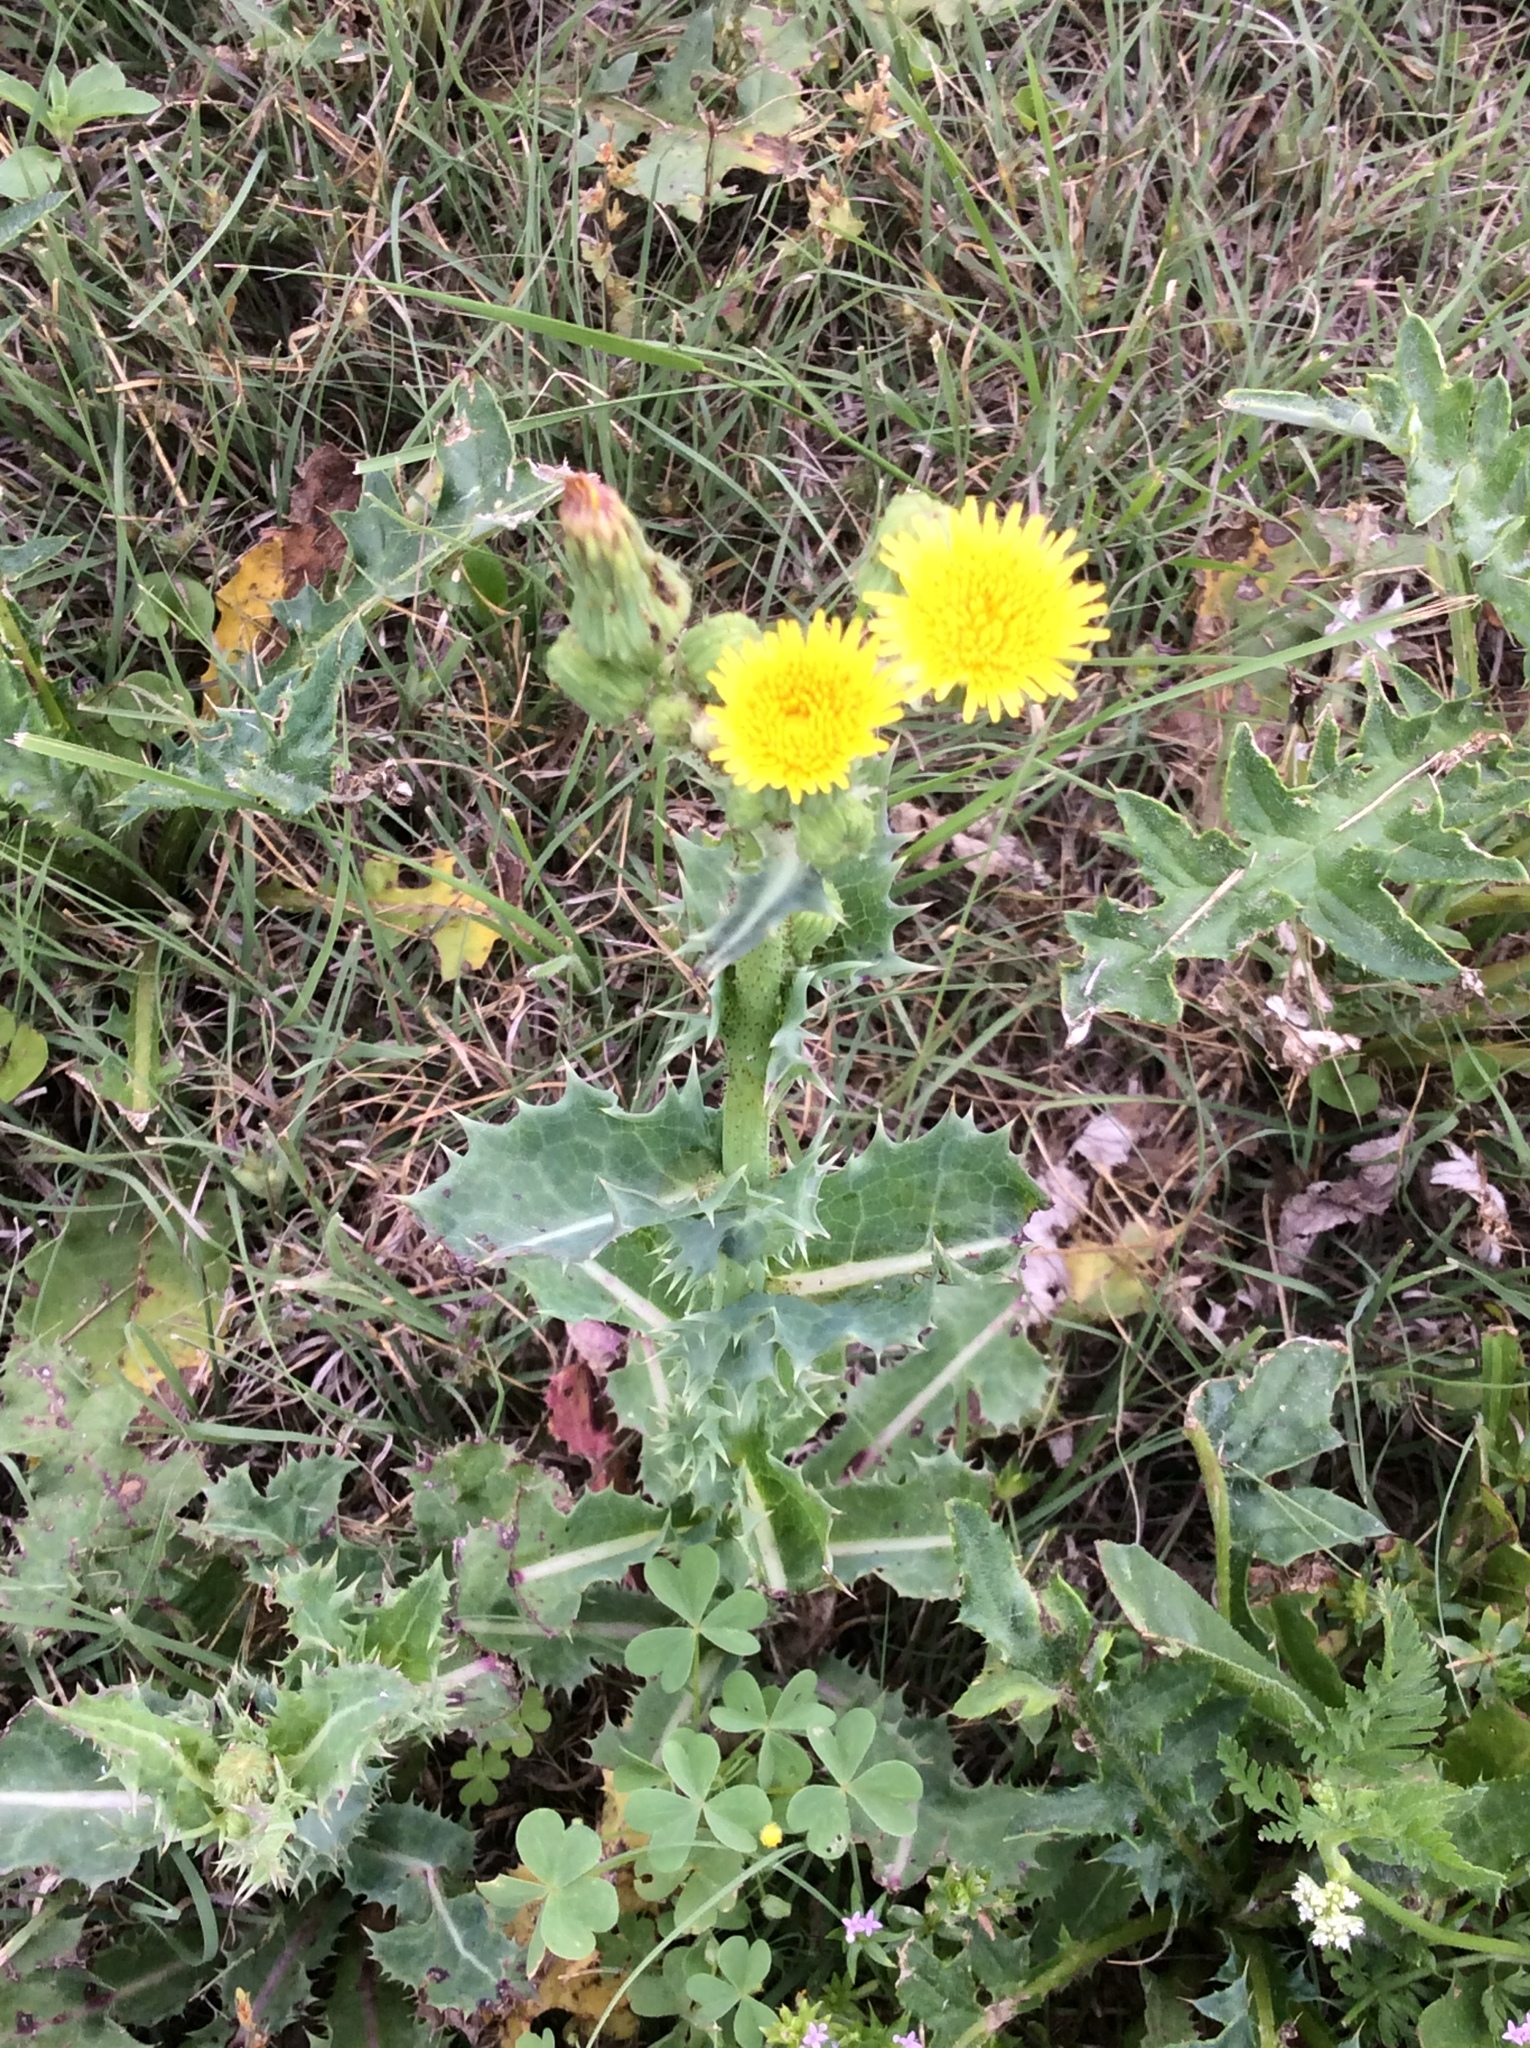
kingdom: Plantae
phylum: Tracheophyta
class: Magnoliopsida
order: Asterales
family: Asteraceae
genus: Sonchus
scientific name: Sonchus asper
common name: Prickly sow-thistle
